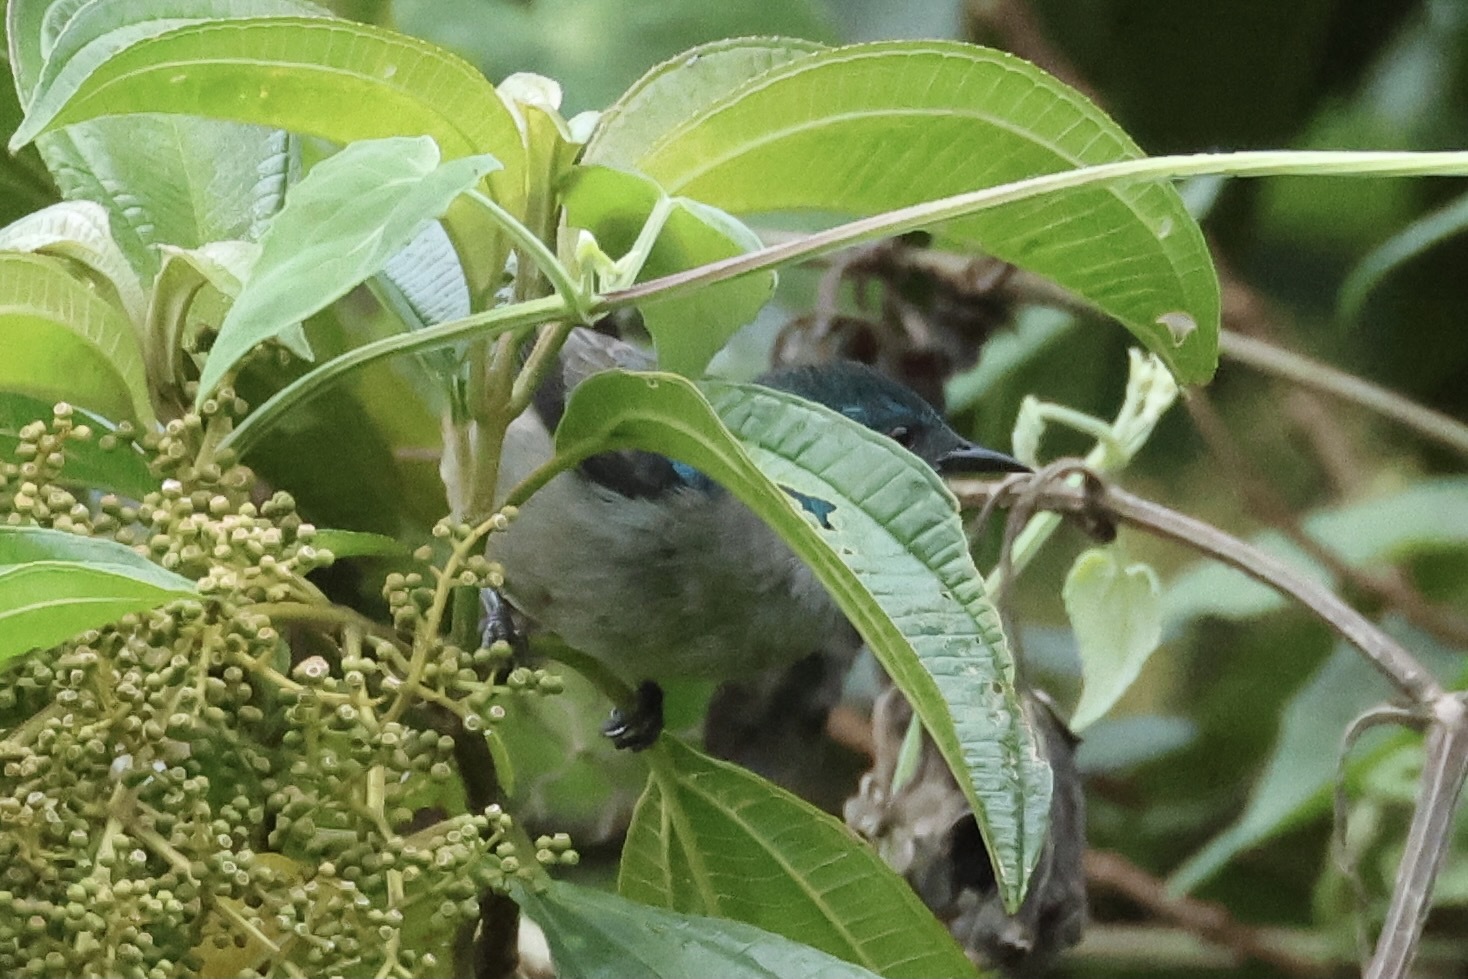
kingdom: Animalia
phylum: Chordata
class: Aves
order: Passeriformes
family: Thraupidae
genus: Dacnis
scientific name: Dacnis venusta
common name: Scarlet-thighed dacnis
